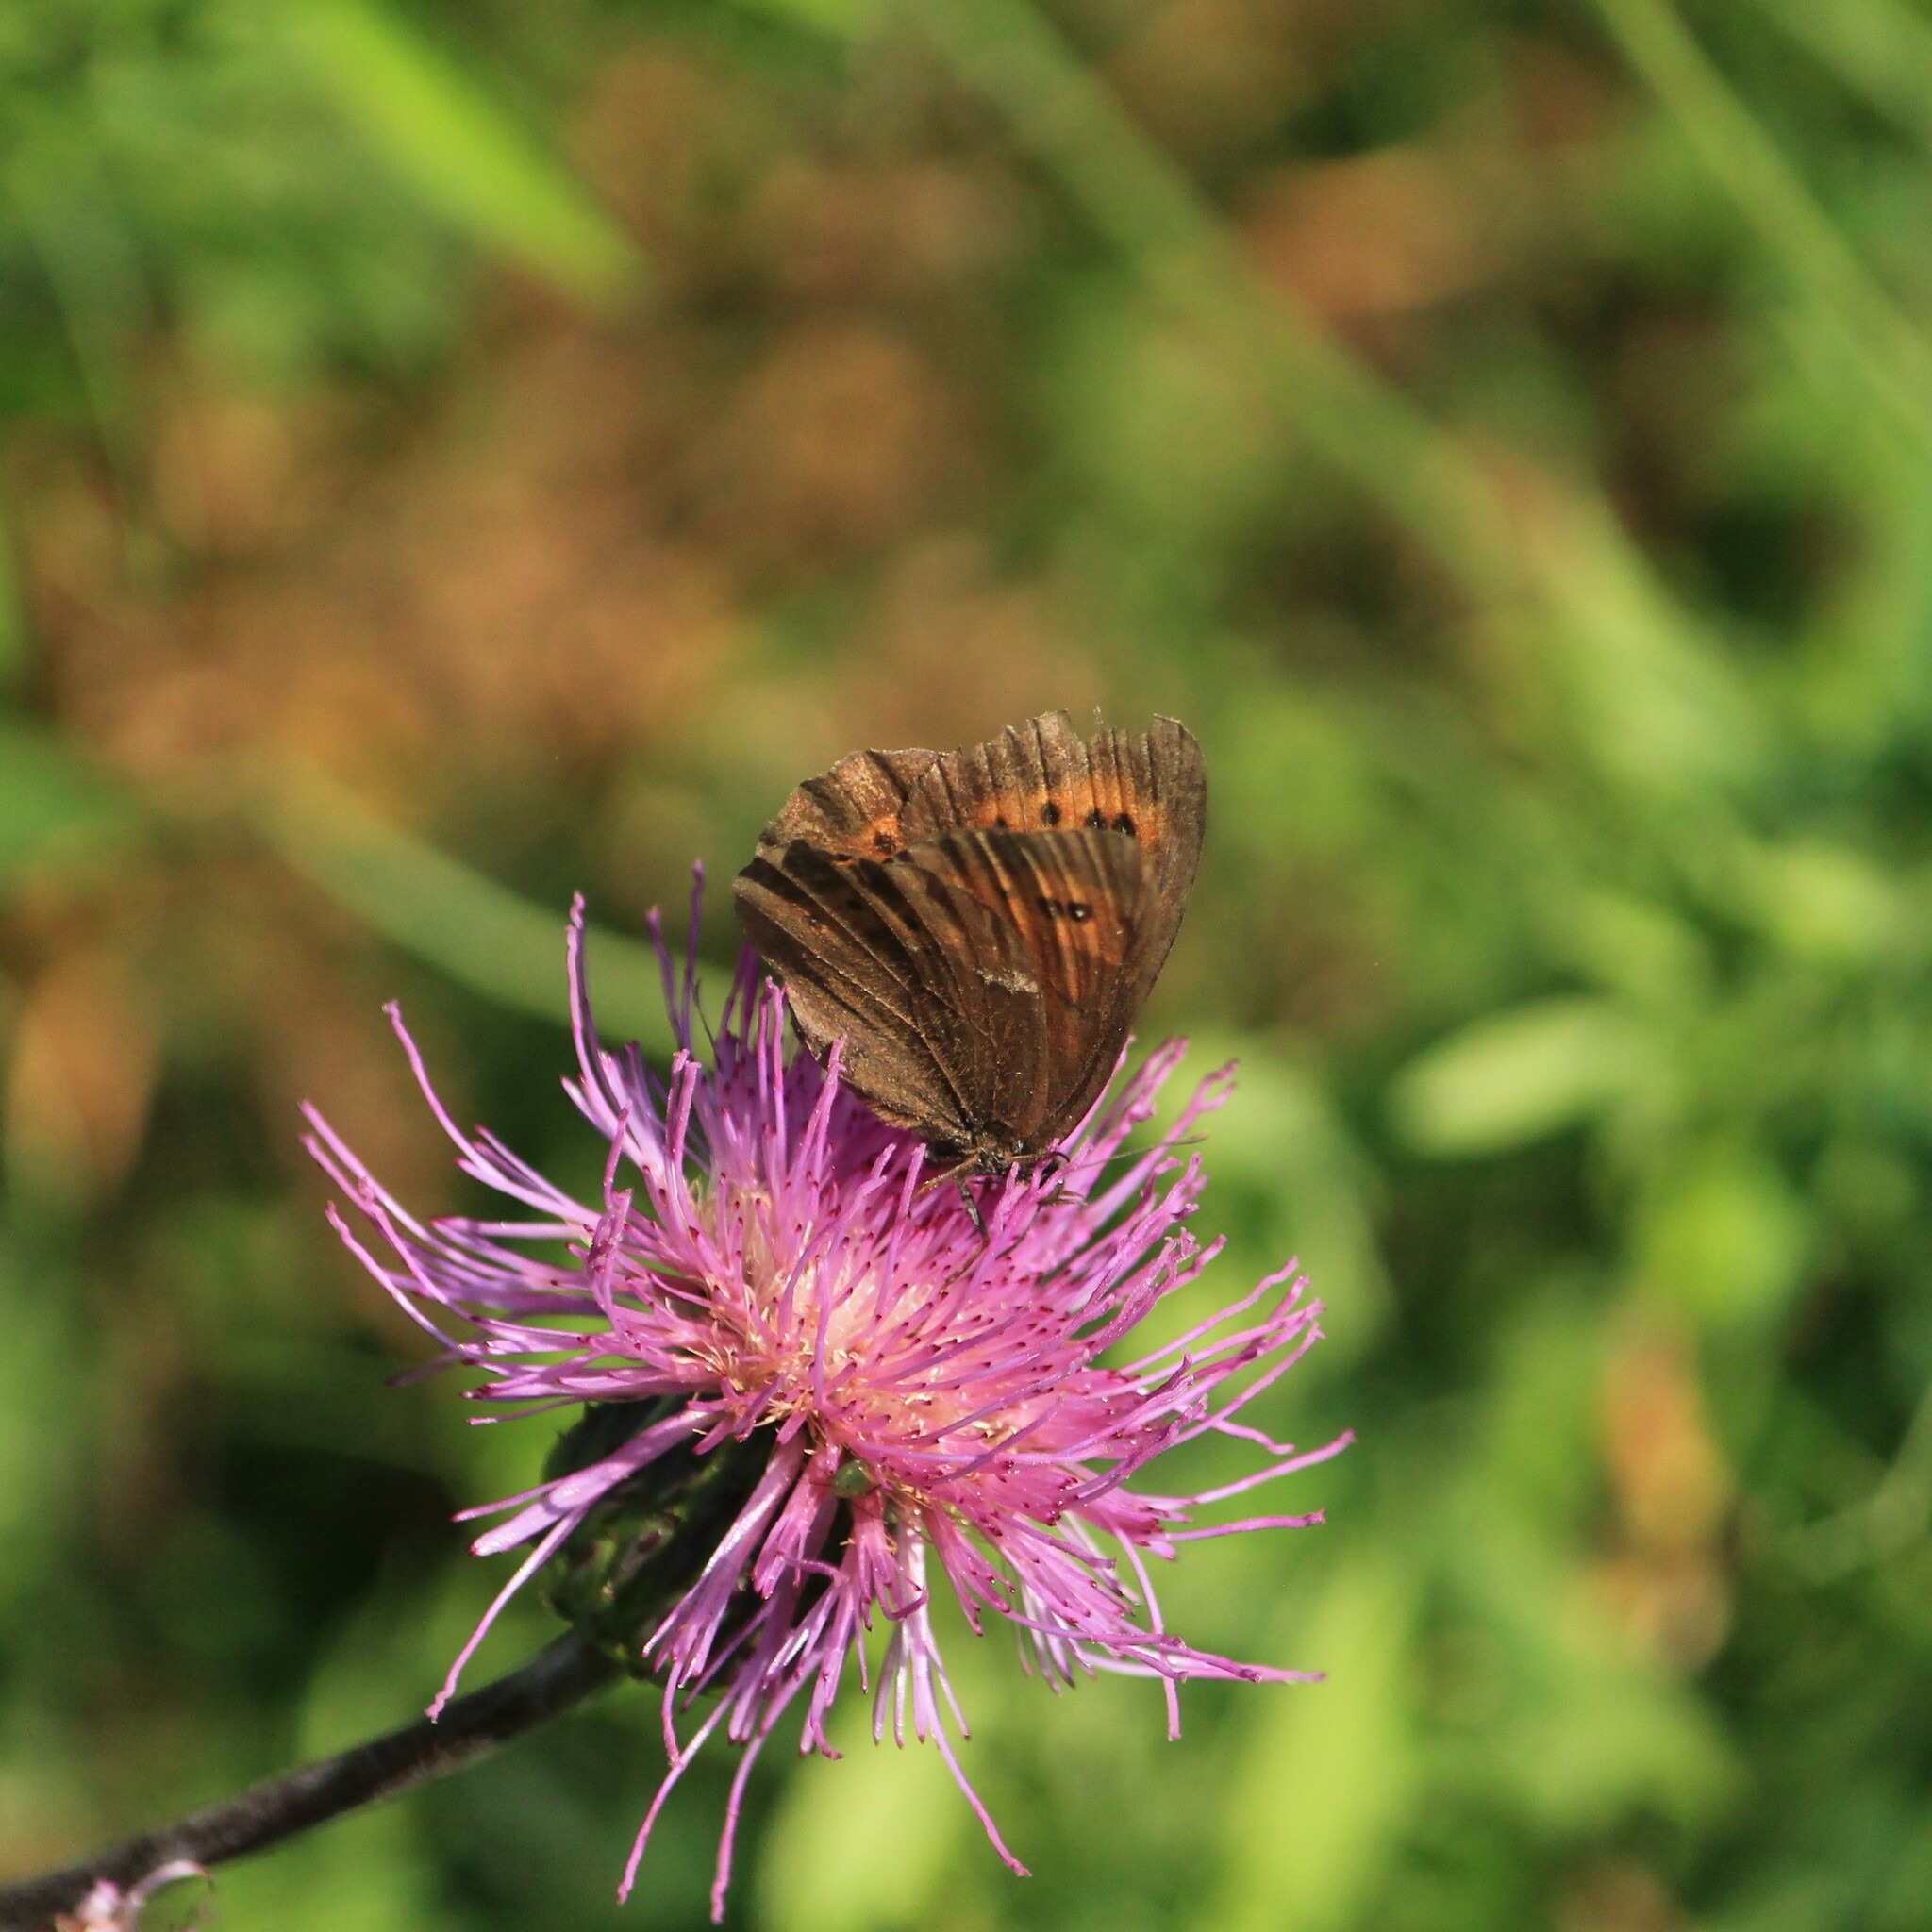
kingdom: Animalia
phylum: Arthropoda
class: Insecta
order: Lepidoptera
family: Nymphalidae
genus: Erebia
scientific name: Erebia ligea
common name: Arran brown
